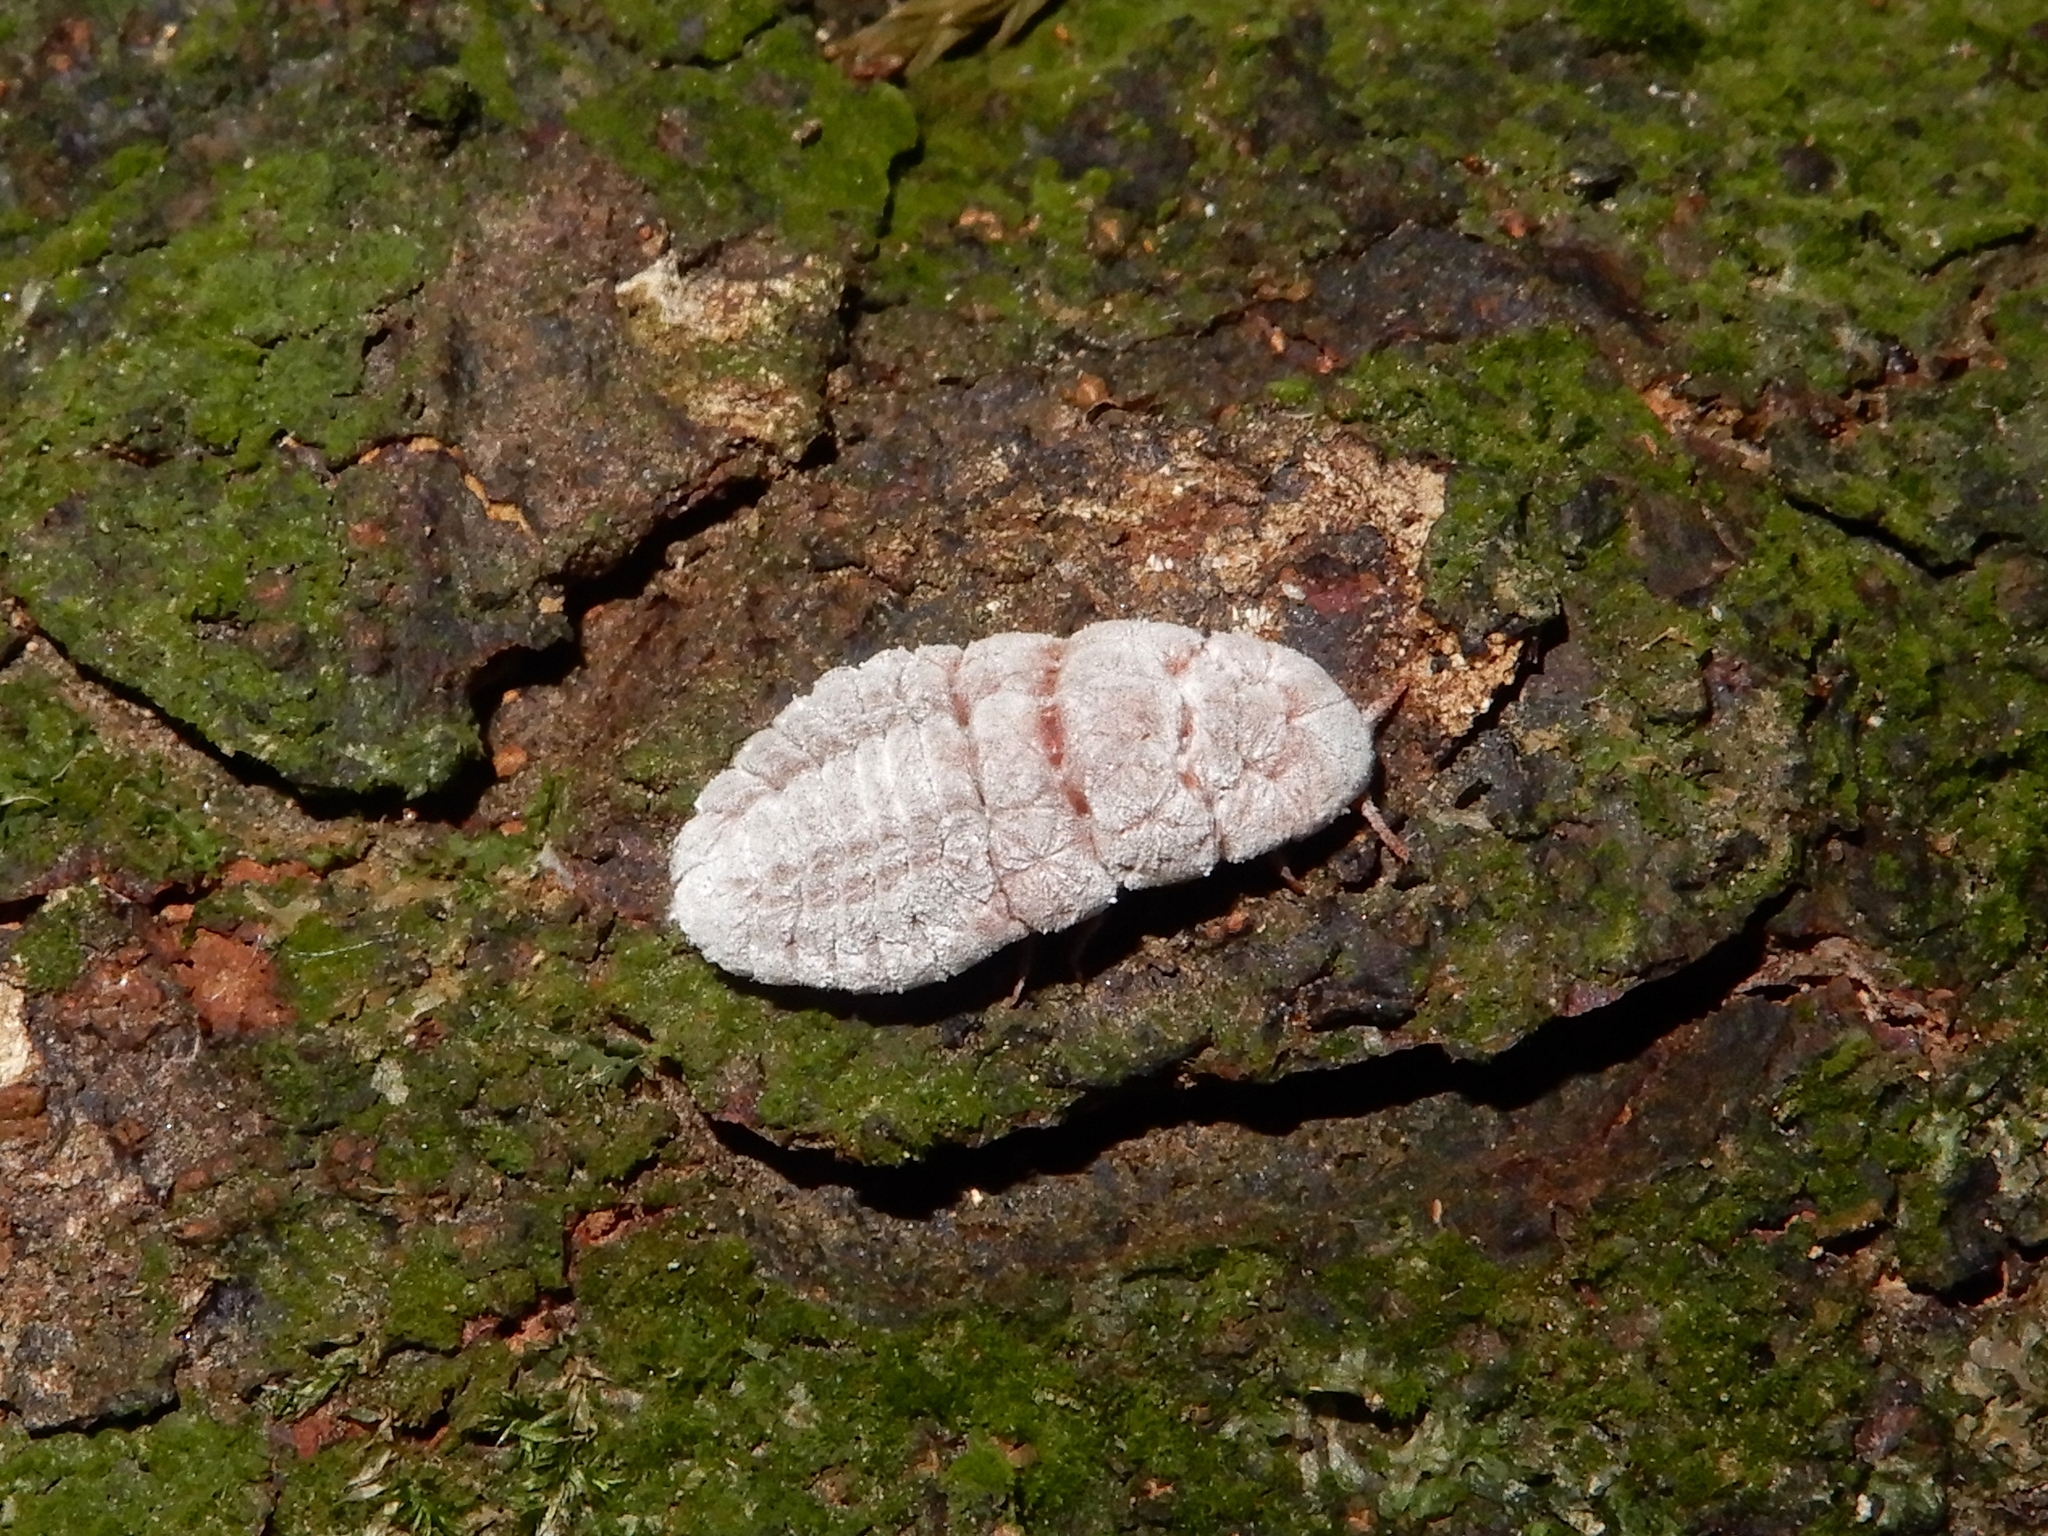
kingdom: Animalia
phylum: Arthropoda
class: Insecta
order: Hemiptera
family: Margarodidae
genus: Coelostomidia
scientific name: Coelostomidia zealandica
